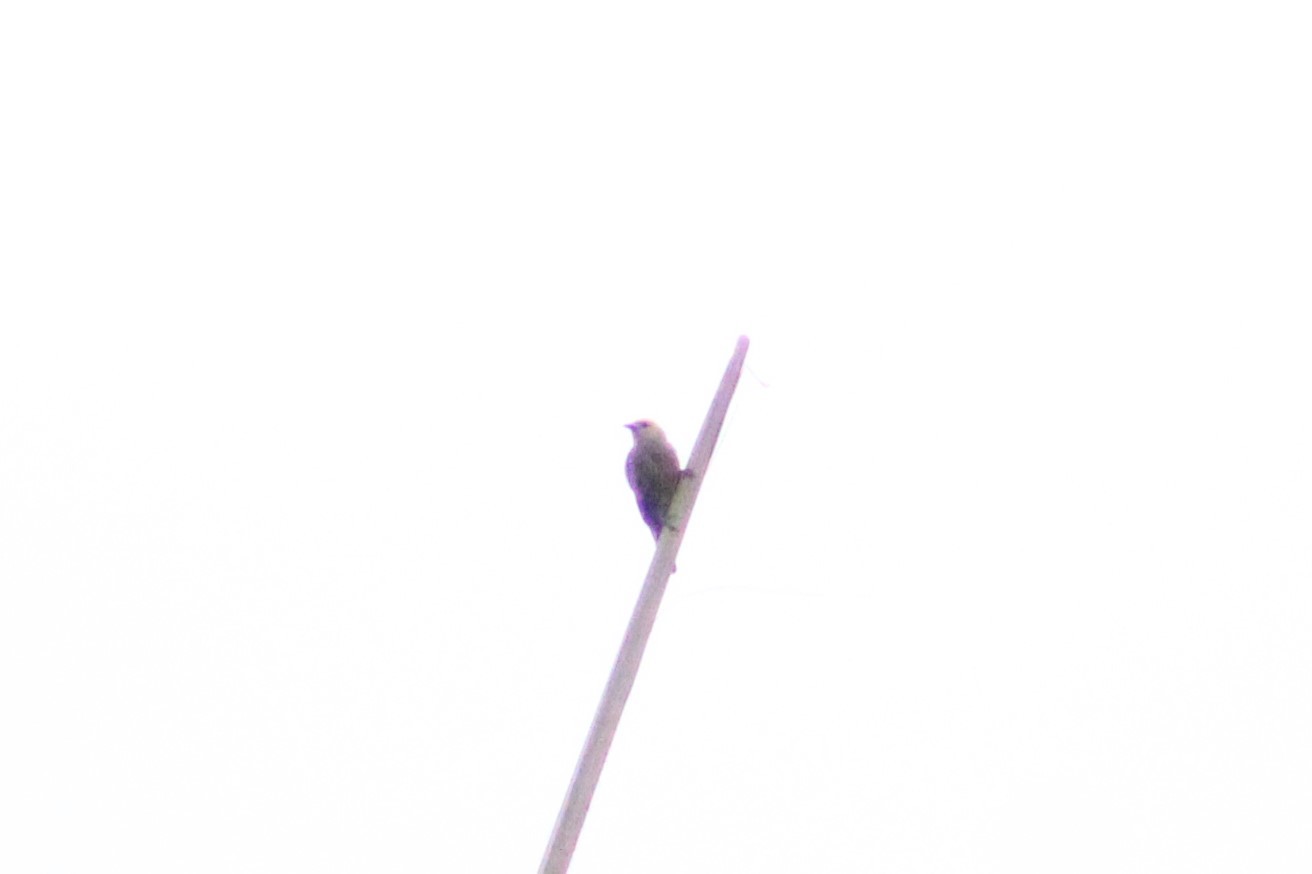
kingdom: Animalia
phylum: Chordata
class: Aves
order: Passeriformes
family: Thraupidae
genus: Thraupis
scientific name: Thraupis palmarum
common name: Palm tanager
